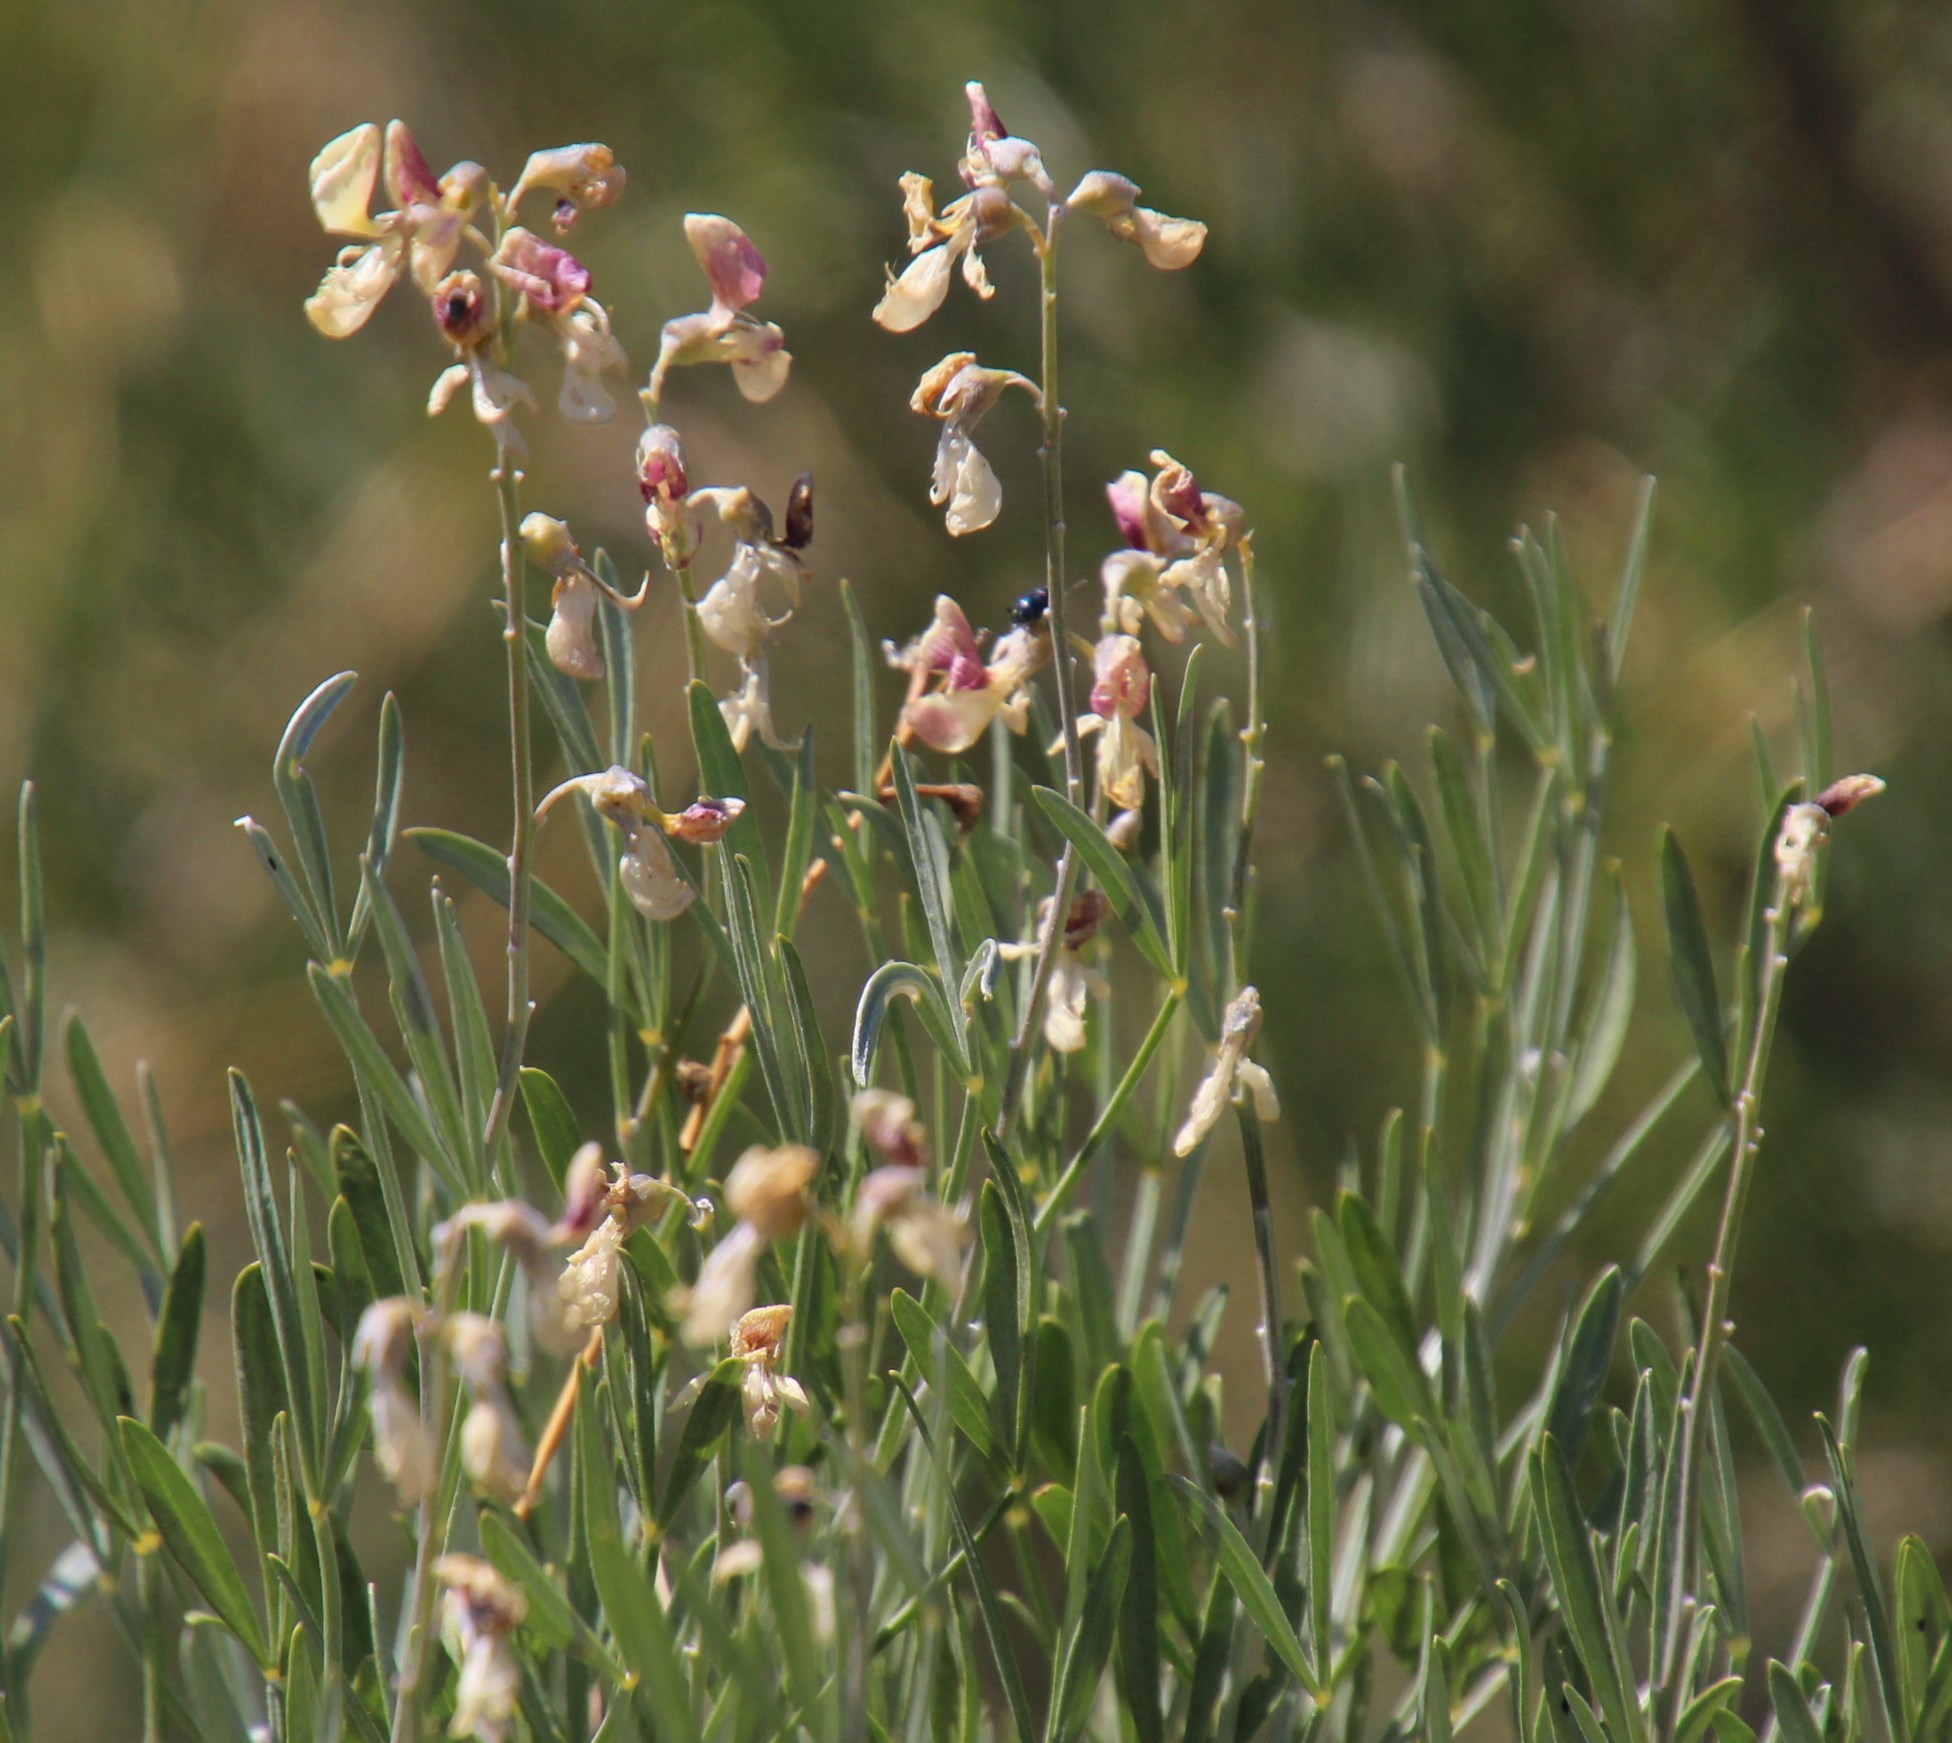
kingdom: Plantae
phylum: Tracheophyta
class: Magnoliopsida
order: Fabales
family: Fabaceae
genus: Calobota
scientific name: Calobota sericea
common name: Silver-pea
